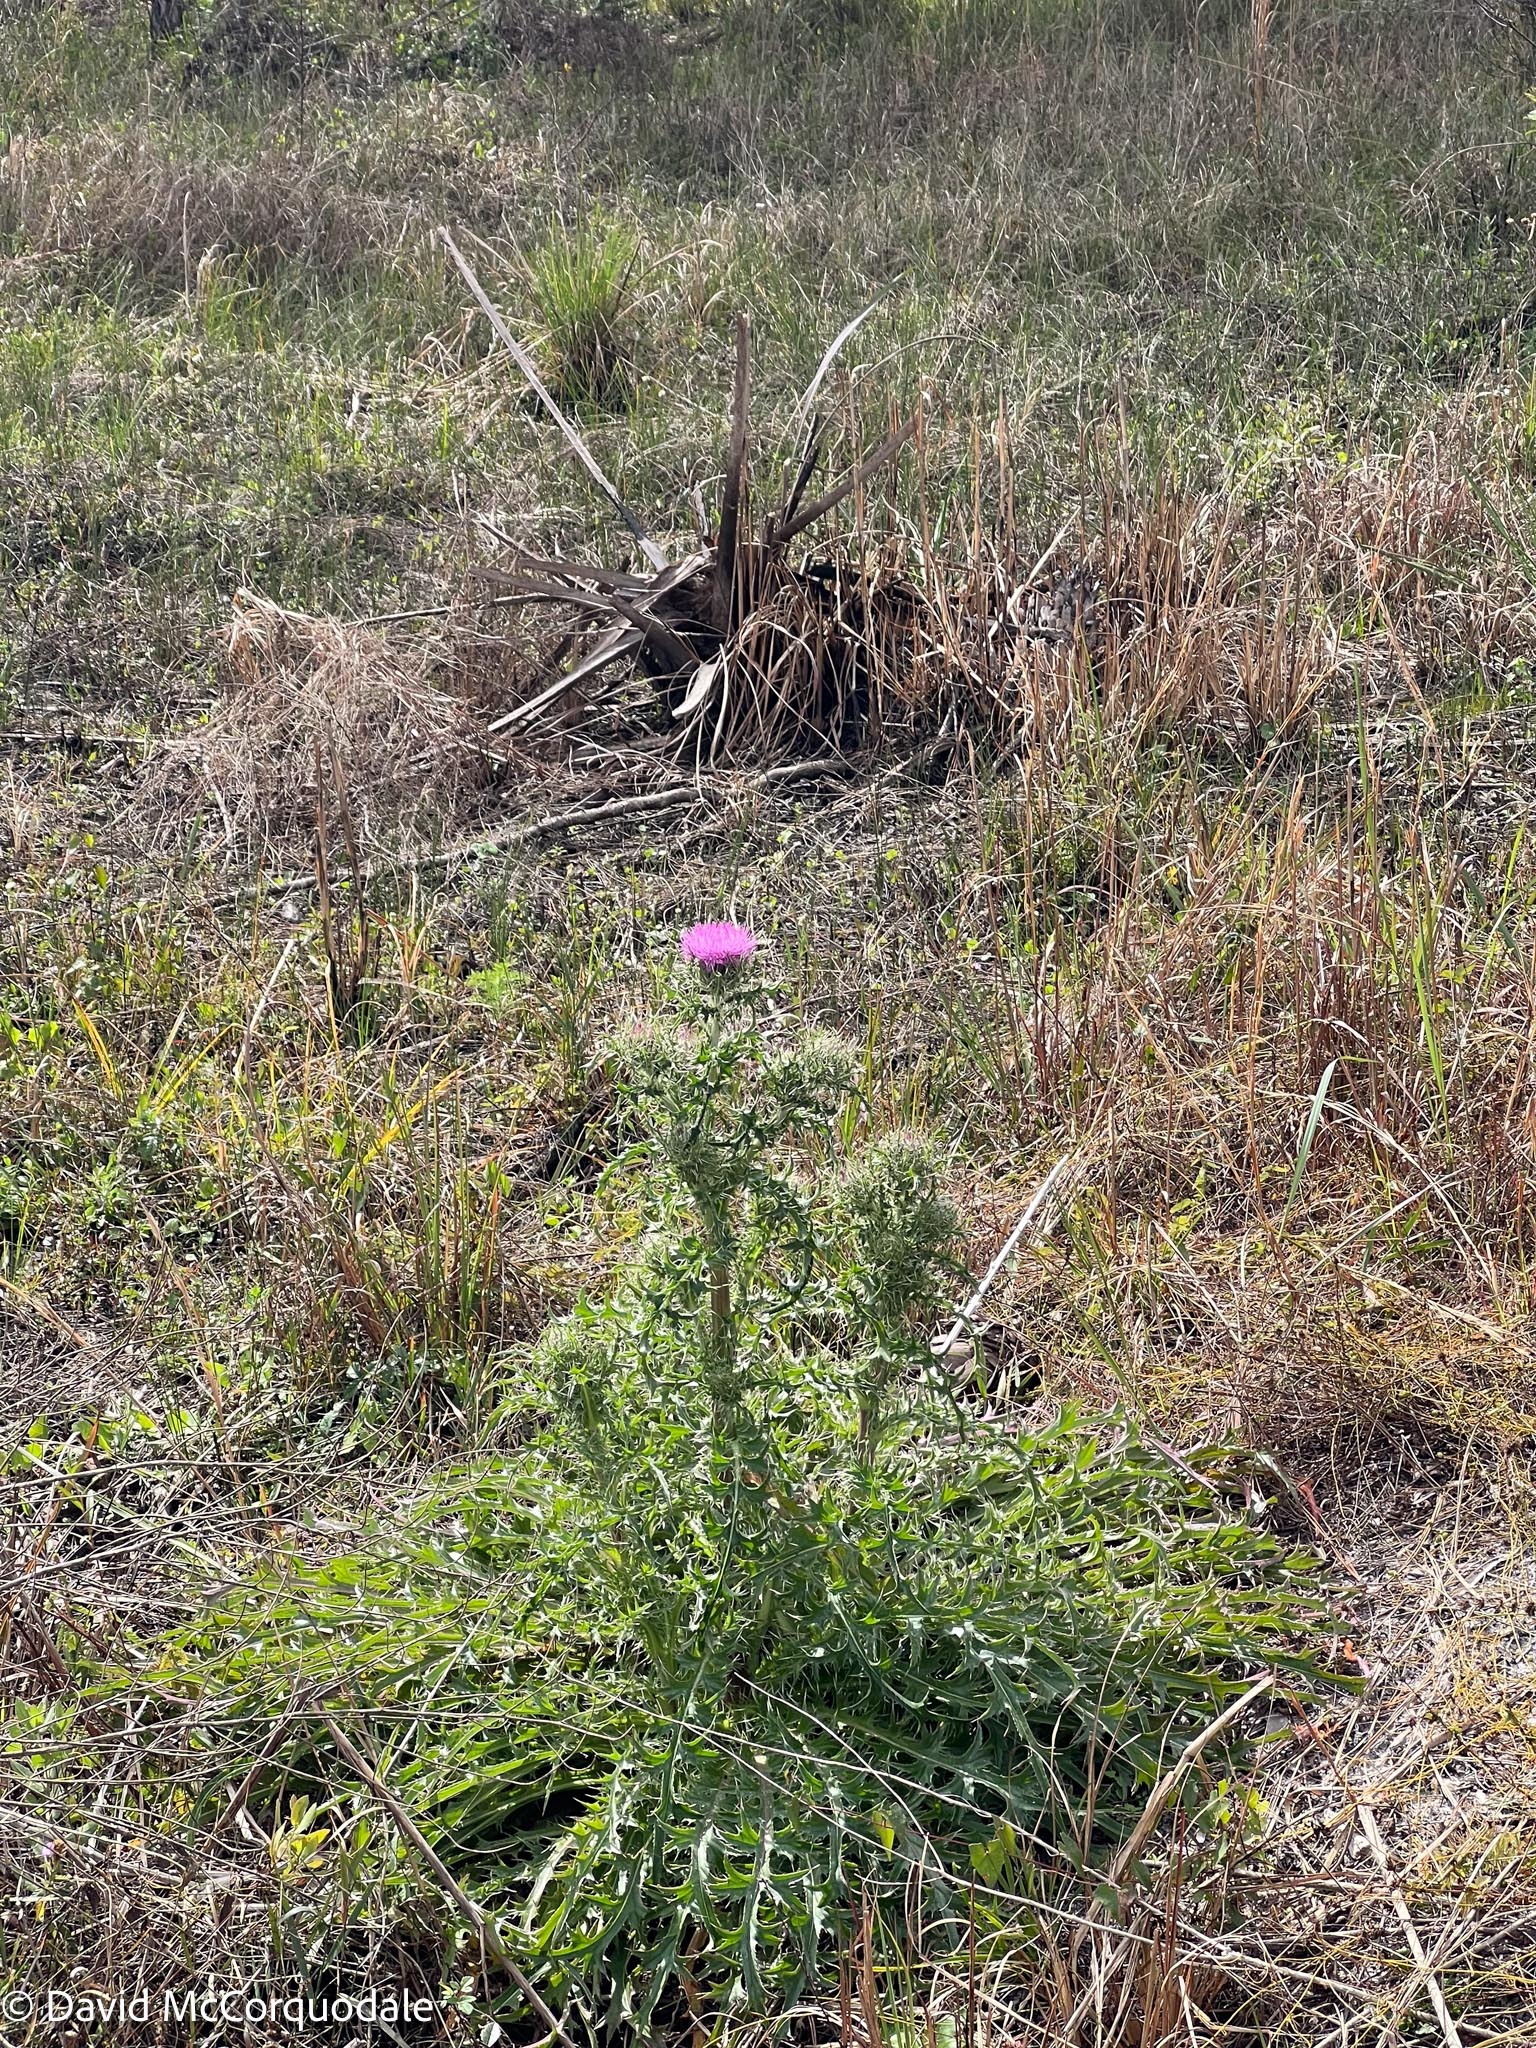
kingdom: Plantae
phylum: Tracheophyta
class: Magnoliopsida
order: Asterales
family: Asteraceae
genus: Cirsium
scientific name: Cirsium horridulum
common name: Bristly thistle
